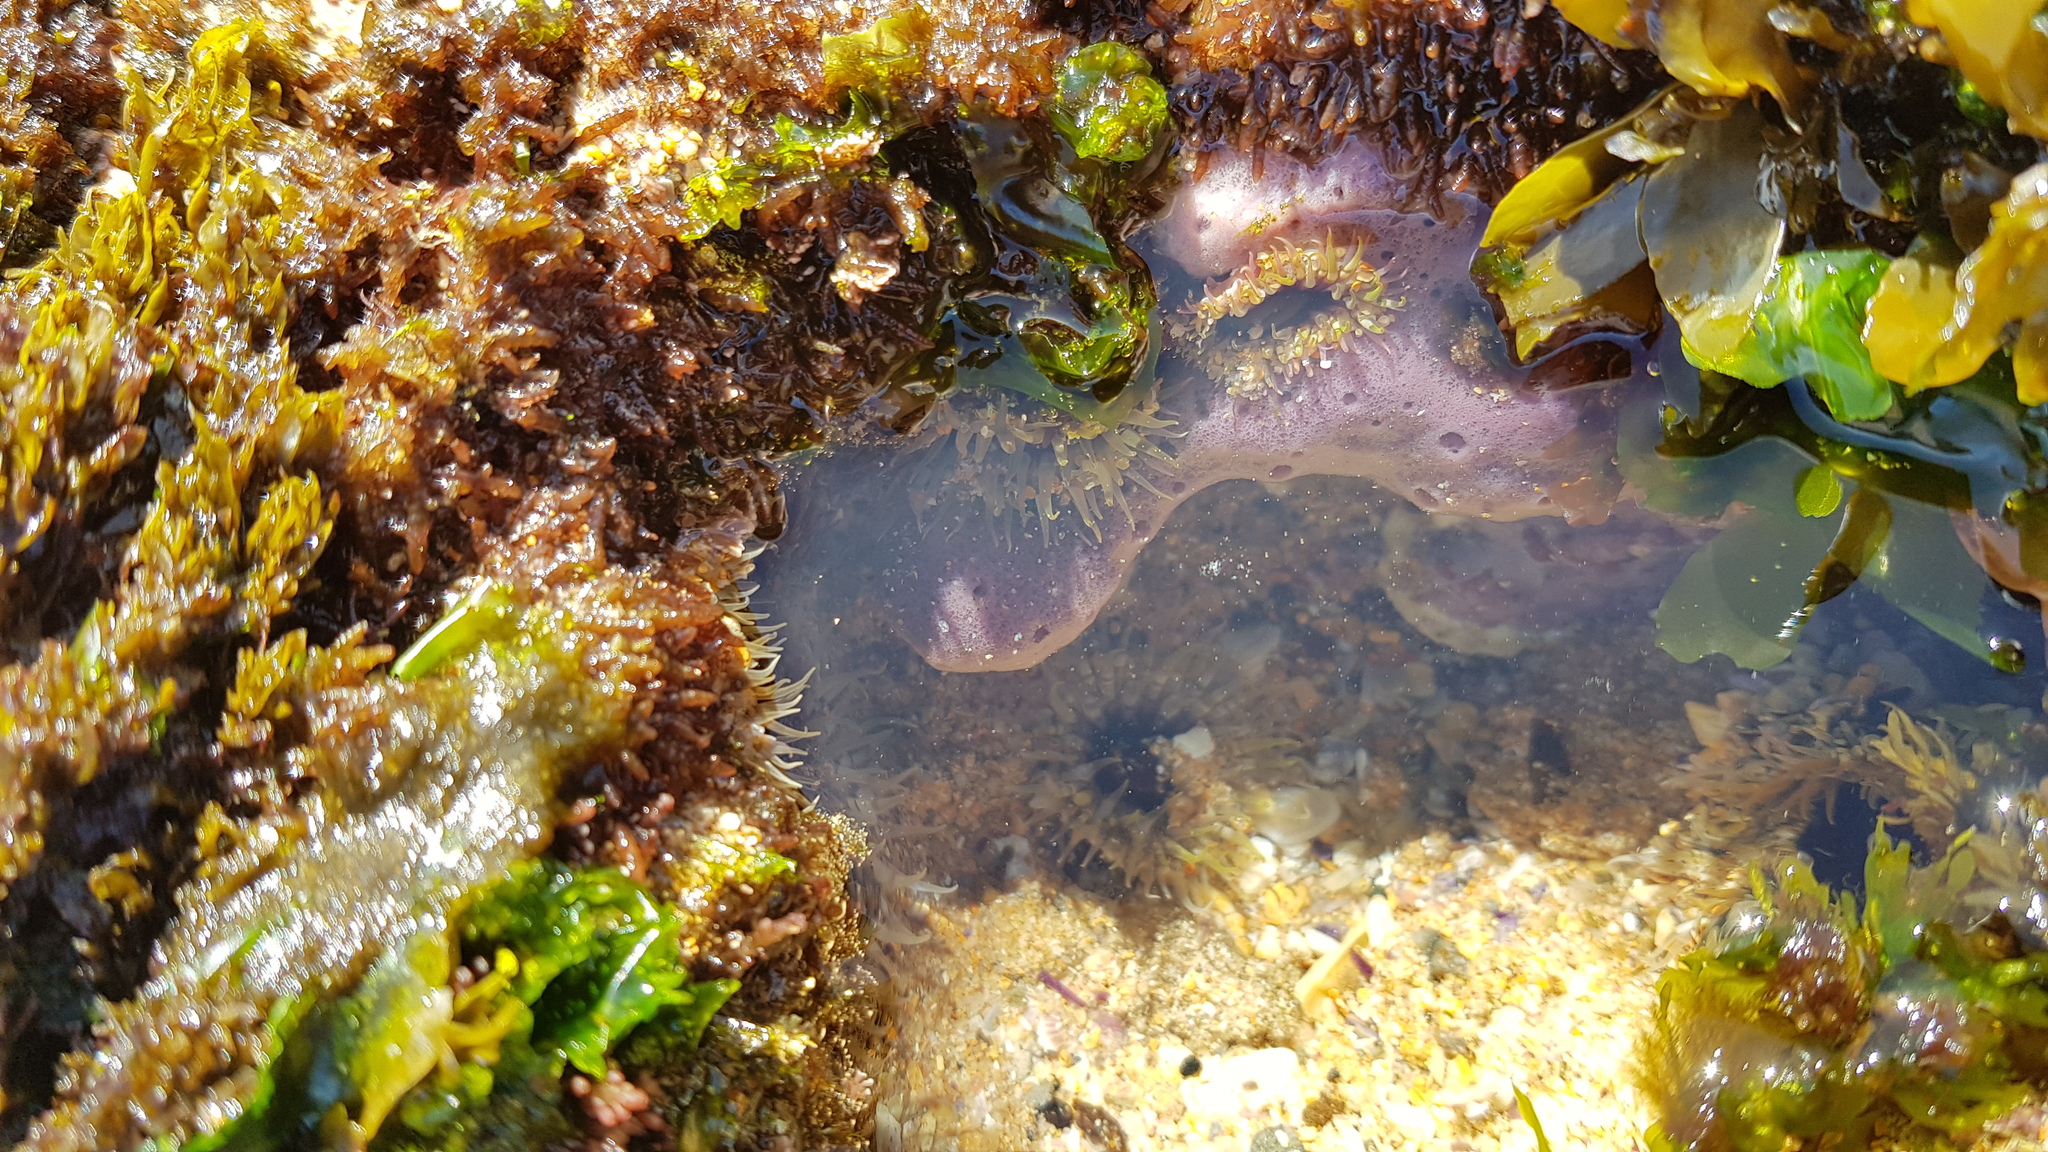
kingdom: Animalia
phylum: Cnidaria
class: Anthozoa
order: Actiniaria
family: Actiniidae
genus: Oulactis
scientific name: Oulactis muscosa
